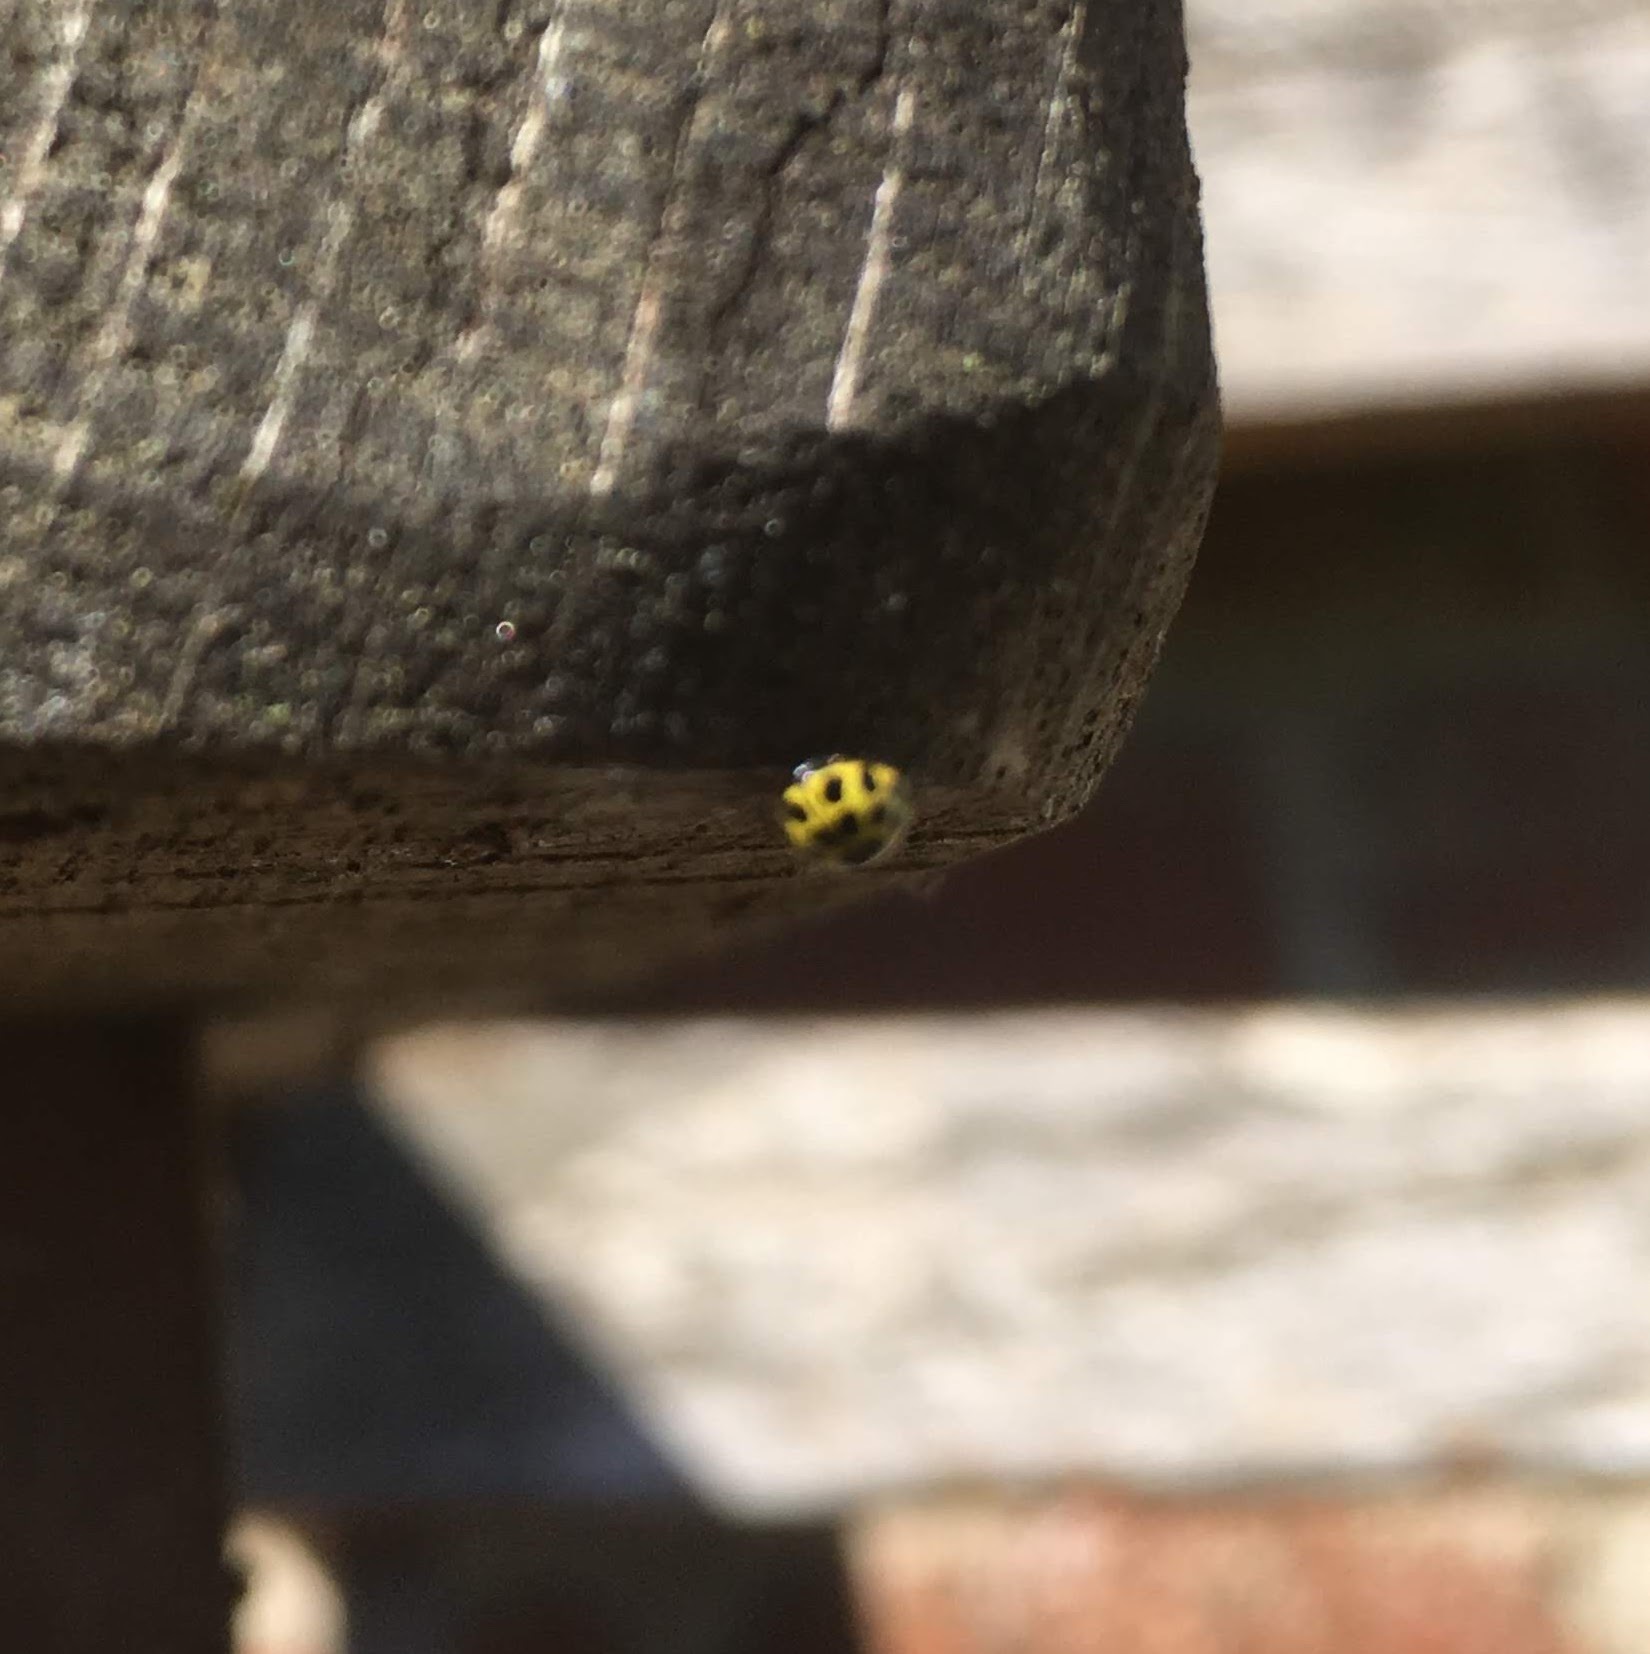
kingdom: Animalia
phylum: Arthropoda
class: Insecta
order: Coleoptera
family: Coccinellidae
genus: Psyllobora
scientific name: Psyllobora vigintiduopunctata
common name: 22-spot ladybird
